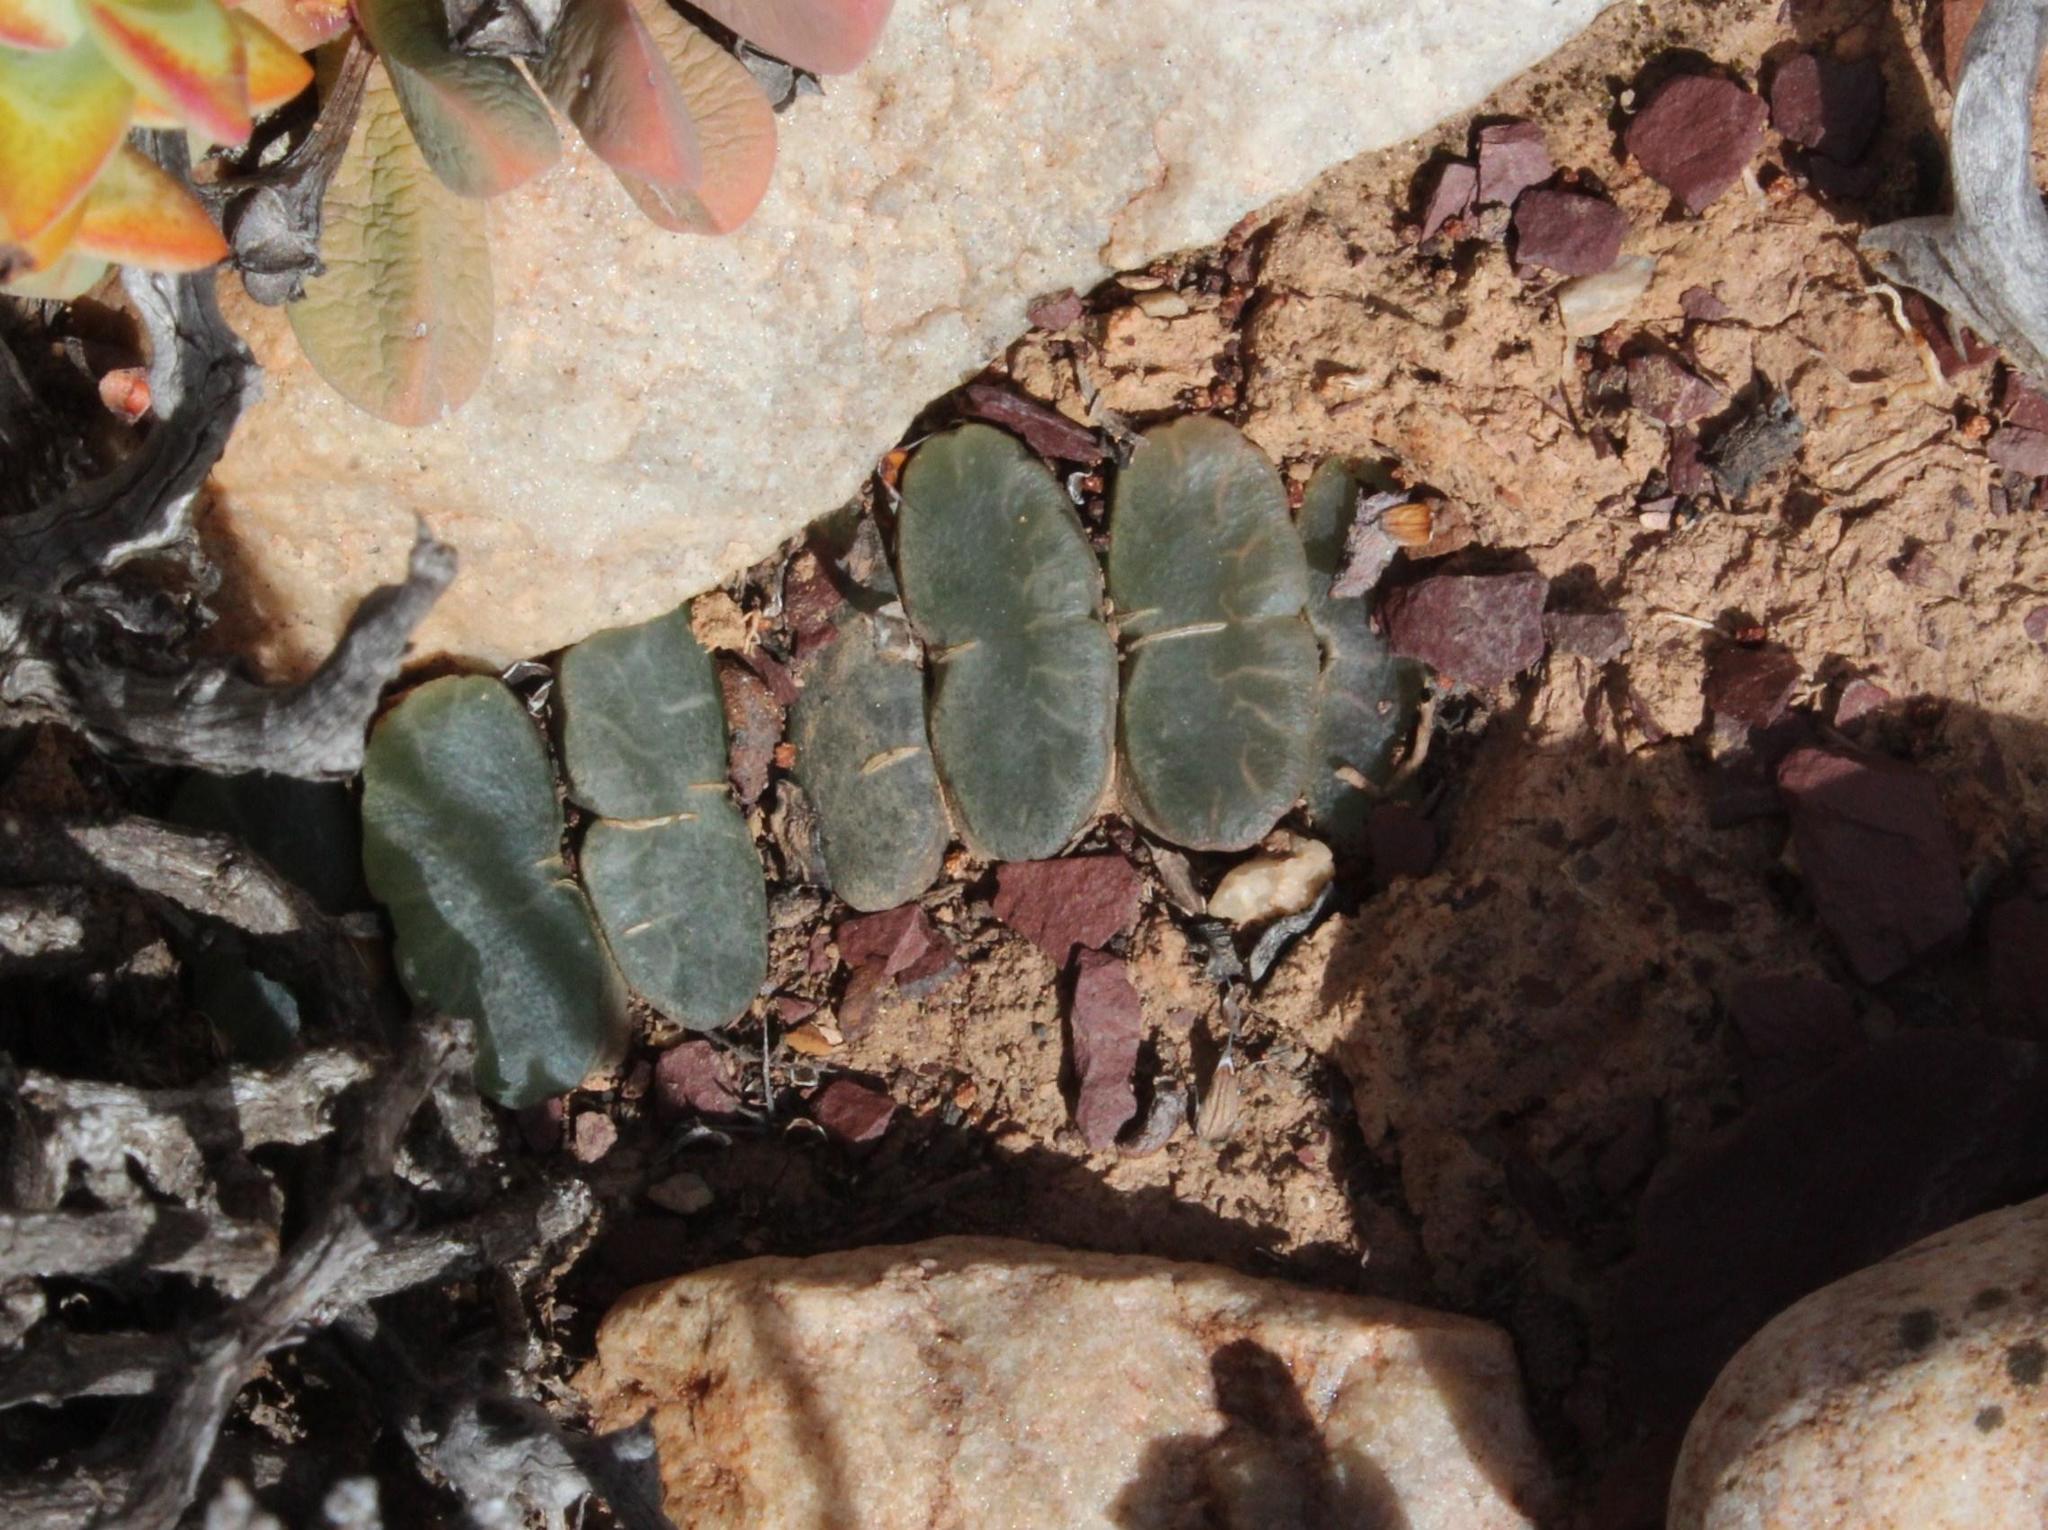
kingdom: Plantae
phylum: Tracheophyta
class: Liliopsida
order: Asparagales
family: Asphodelaceae
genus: Haworthia
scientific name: Haworthia truncata
